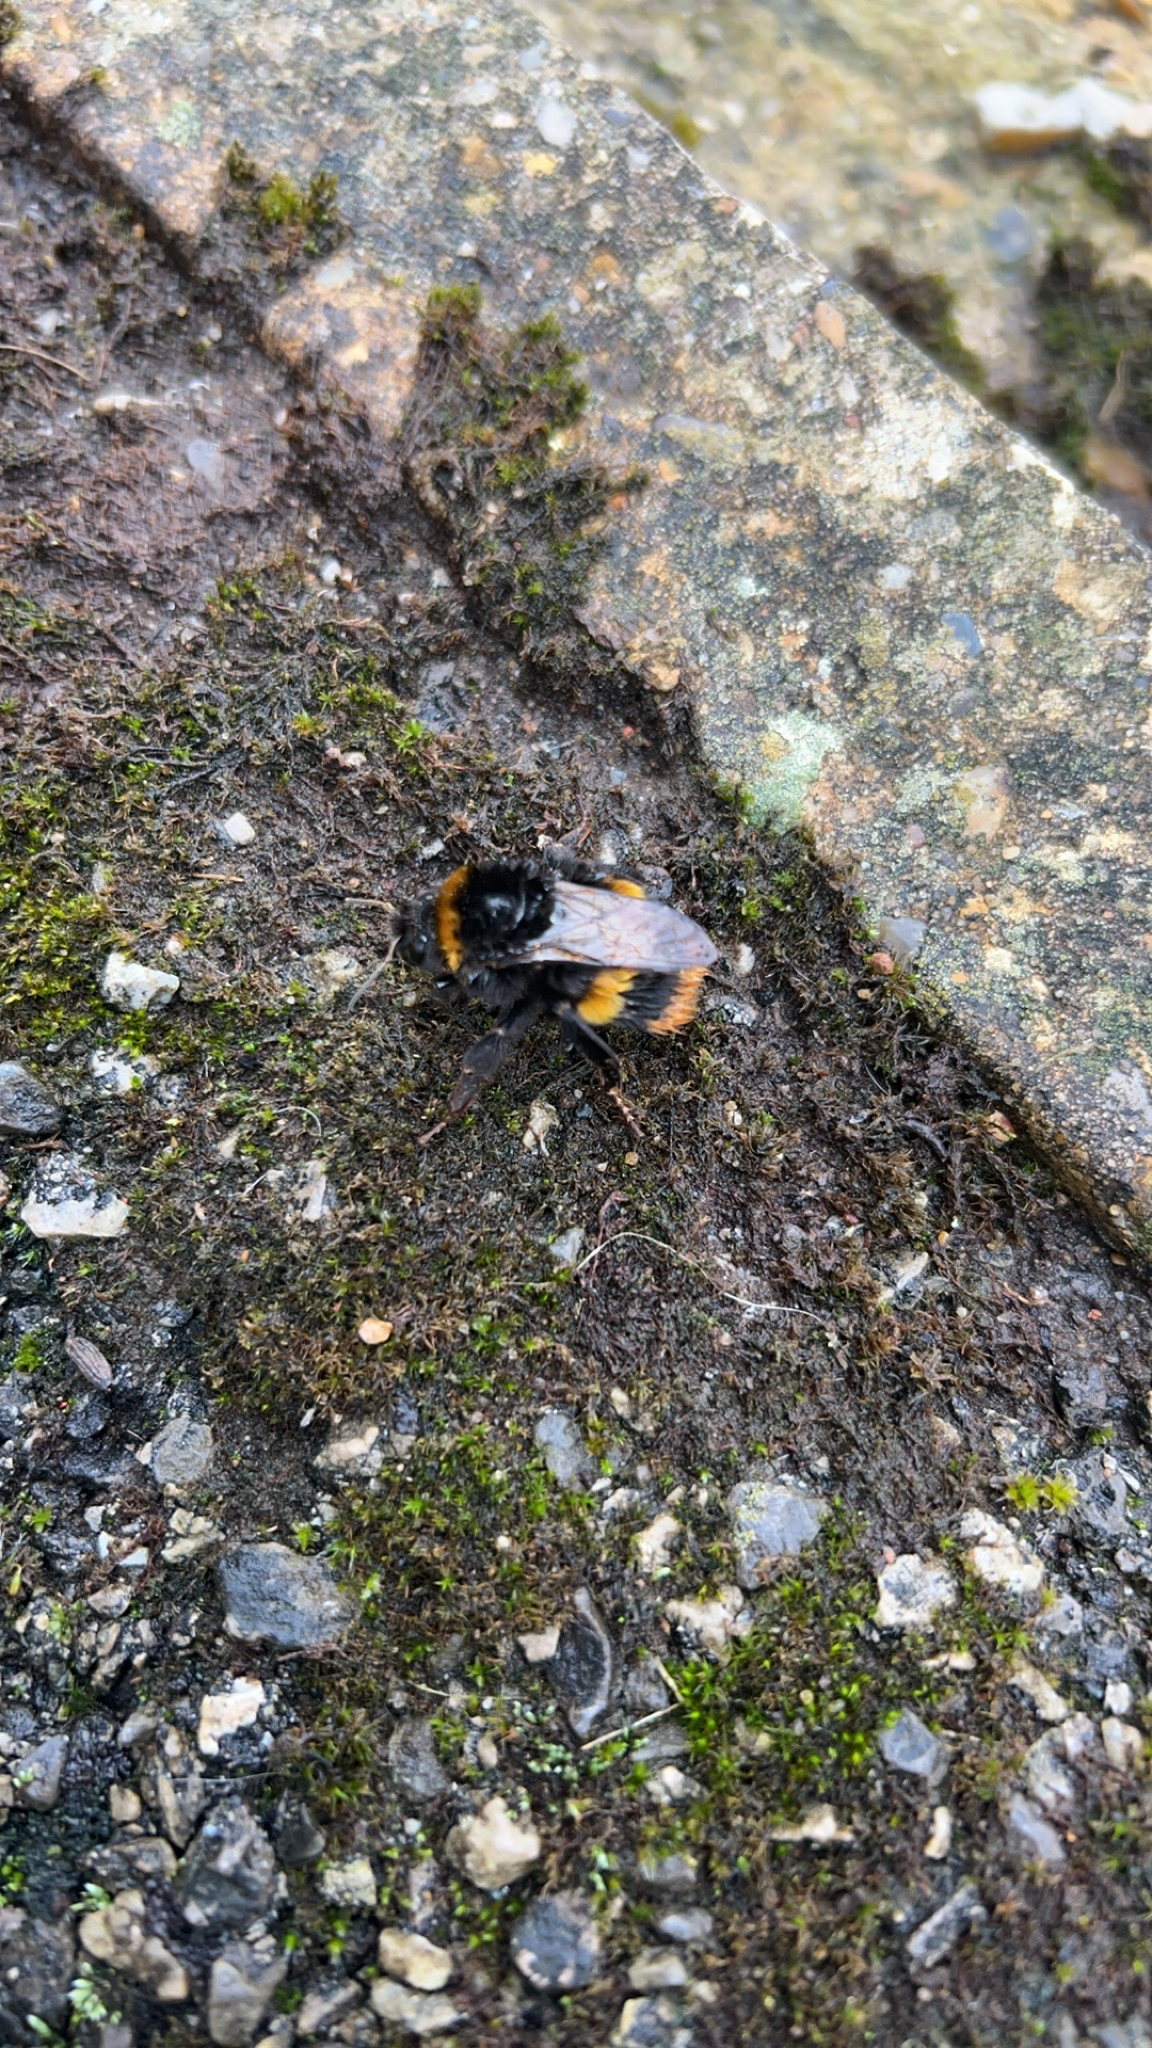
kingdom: Animalia
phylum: Arthropoda
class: Insecta
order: Hymenoptera
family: Apidae
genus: Bombus
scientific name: Bombus terrestris
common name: Buff-tailed bumblebee
